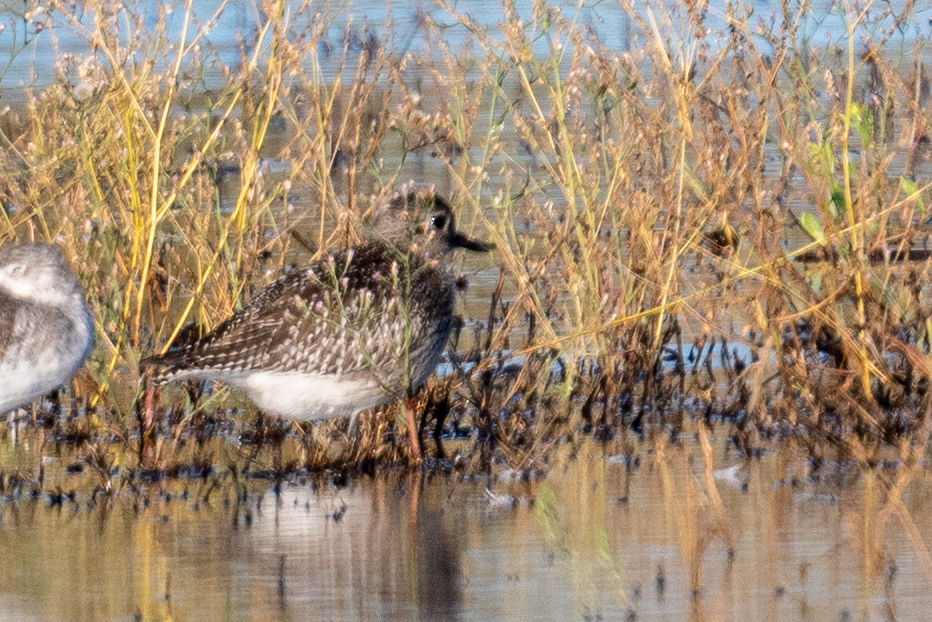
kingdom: Animalia
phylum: Chordata
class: Aves
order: Charadriiformes
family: Charadriidae
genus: Pluvialis
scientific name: Pluvialis squatarola
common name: Grey plover
